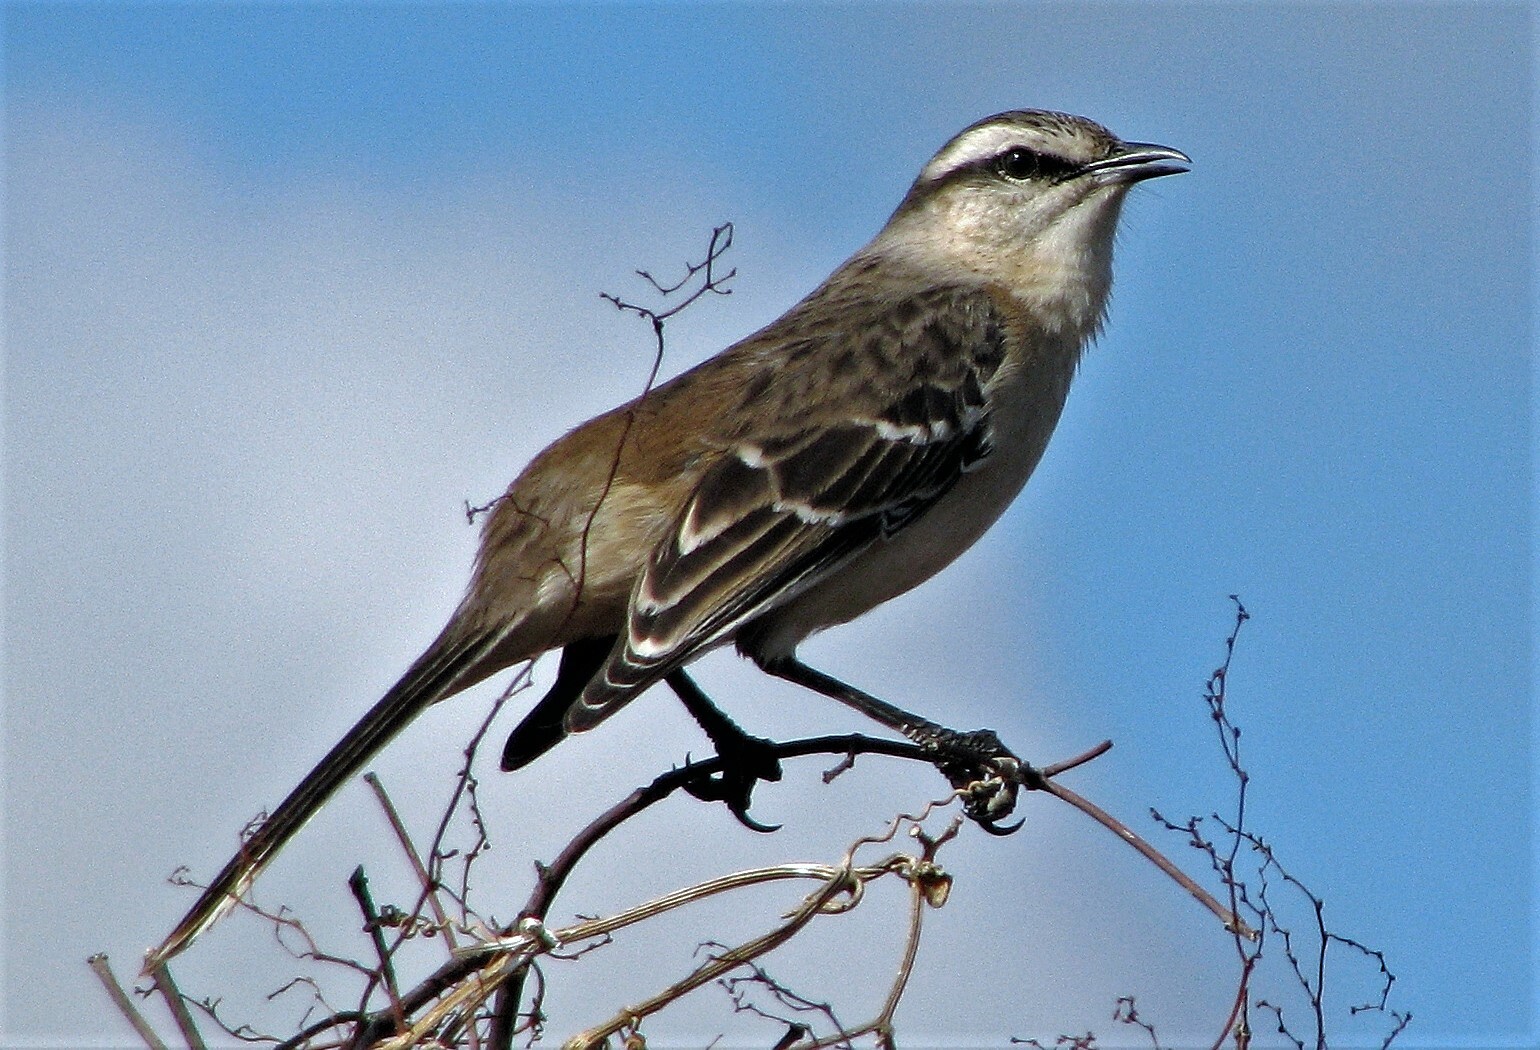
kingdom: Animalia
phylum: Chordata
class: Aves
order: Passeriformes
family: Mimidae
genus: Mimus
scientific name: Mimus saturninus
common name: Chalk-browed mockingbird
